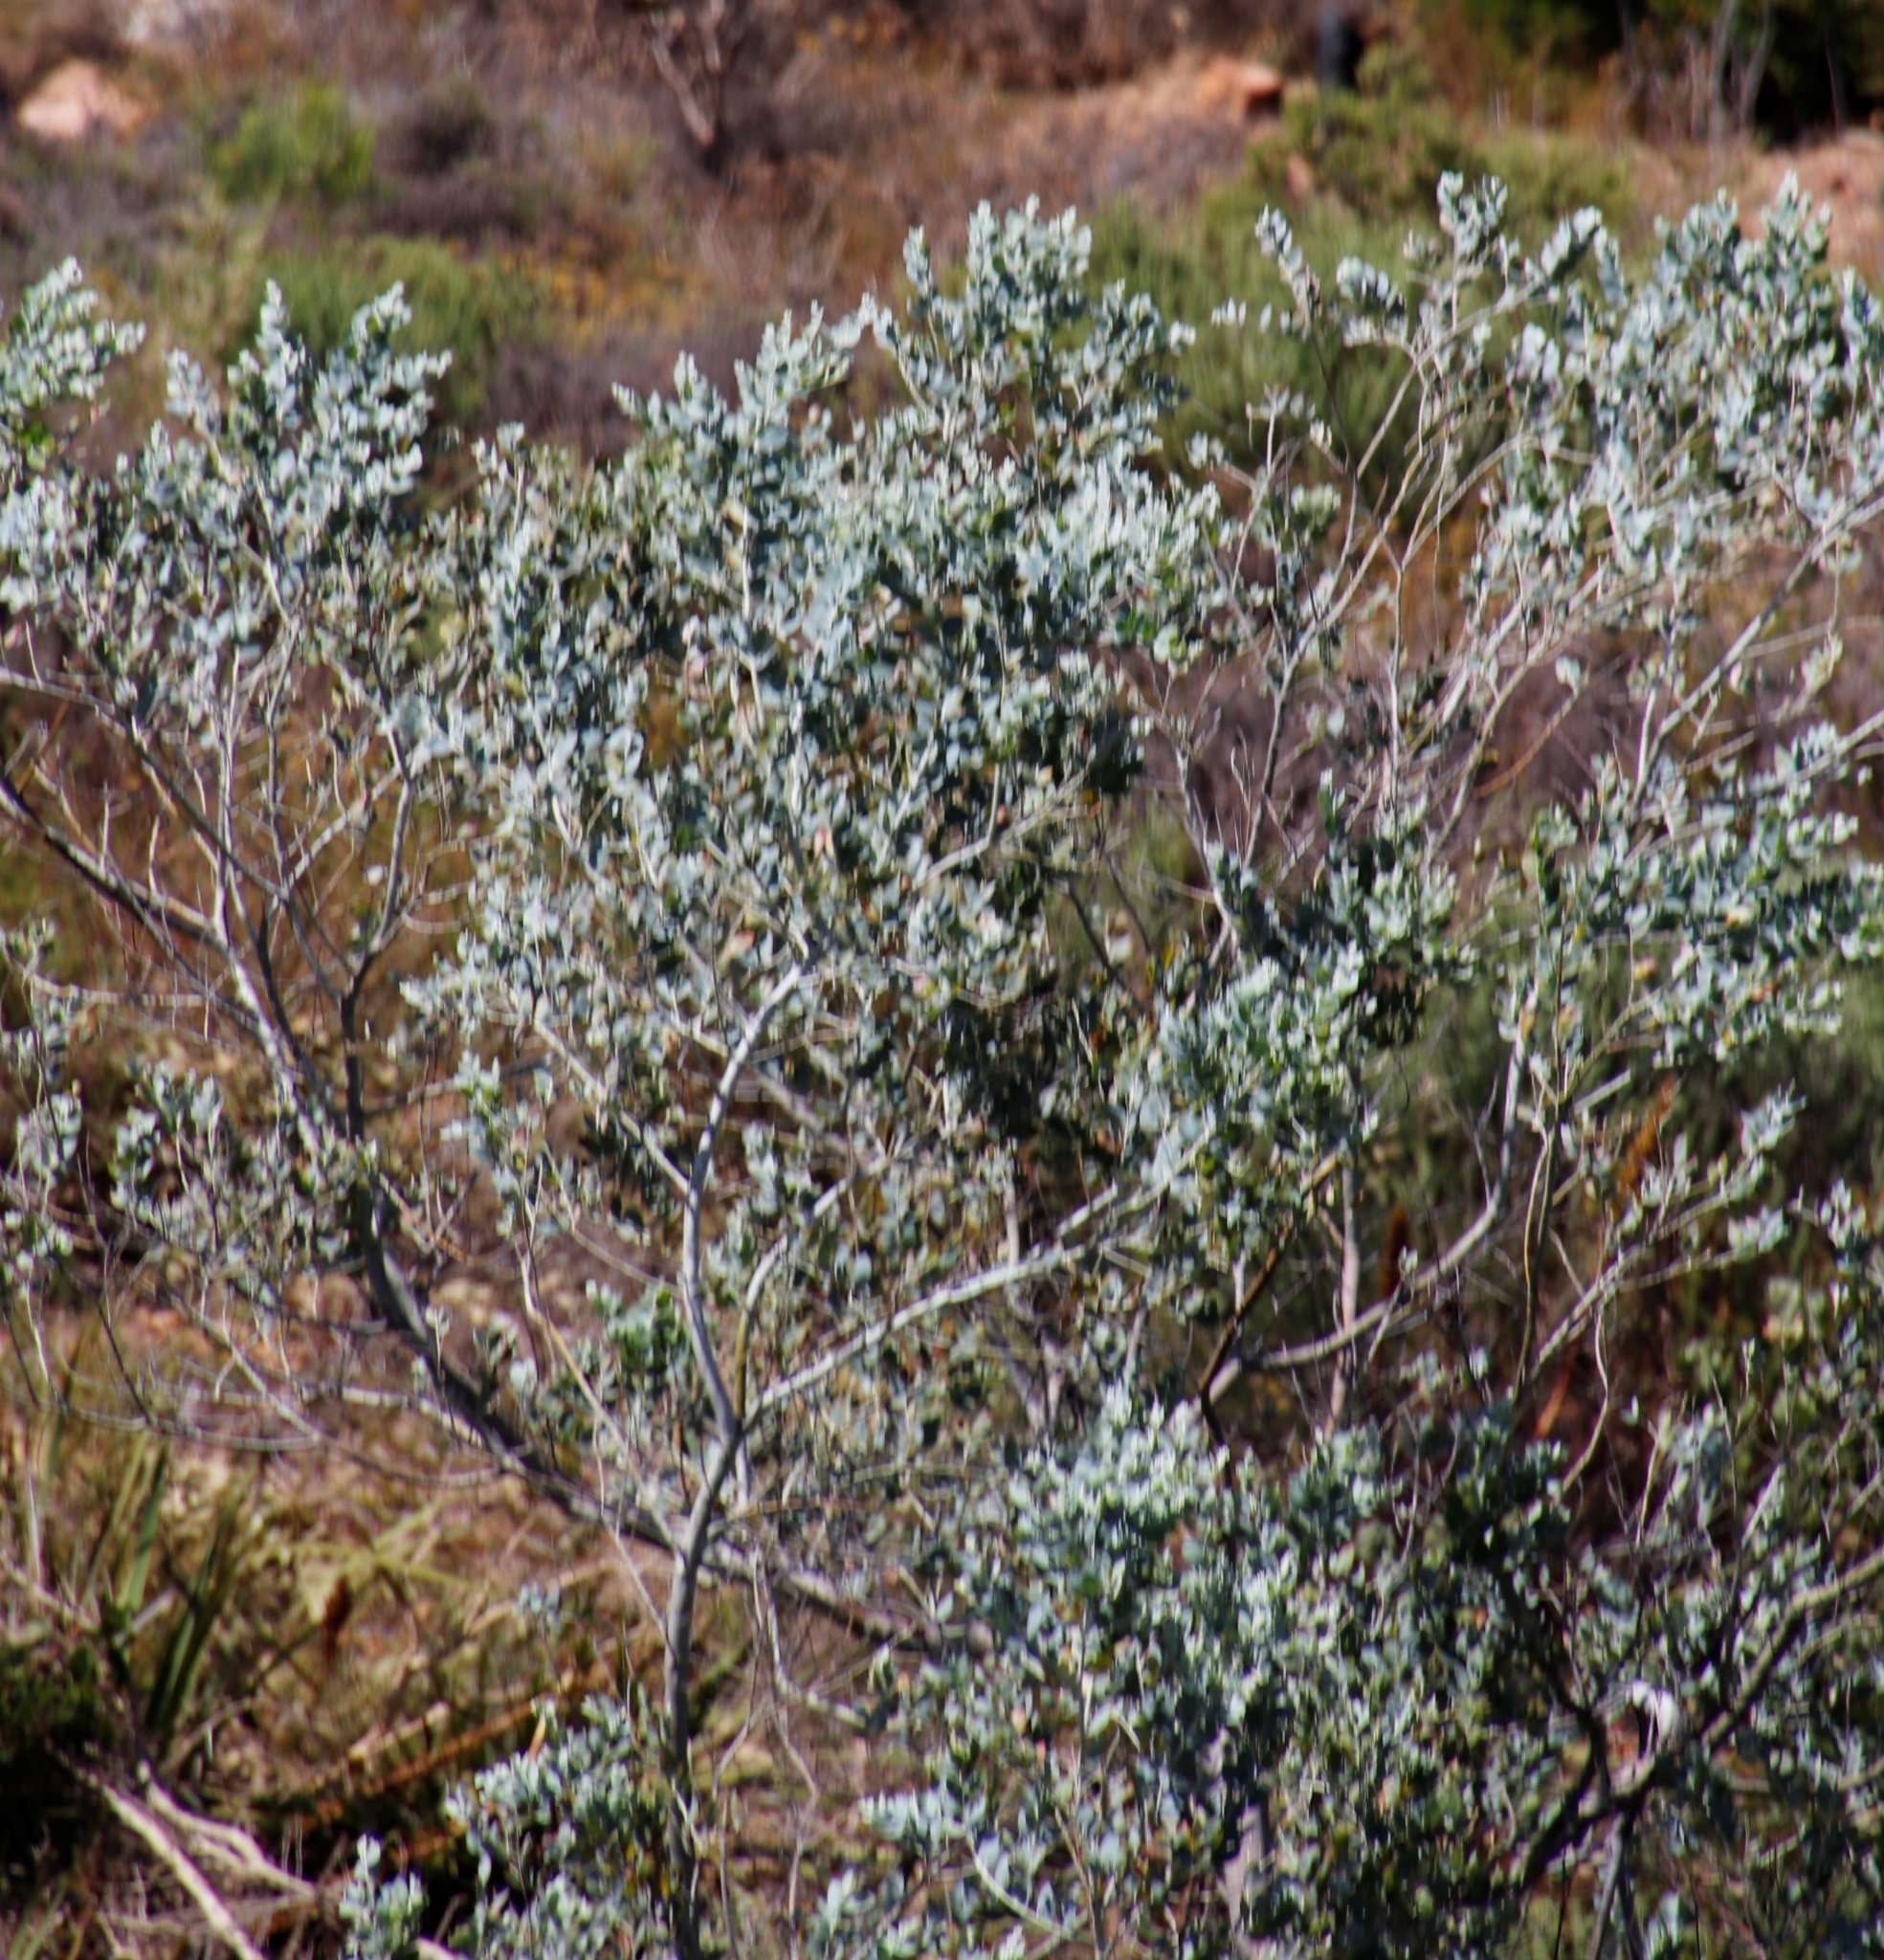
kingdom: Plantae
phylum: Tracheophyta
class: Magnoliopsida
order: Fabales
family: Fabaceae
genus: Acacia
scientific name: Acacia podalyriifolia
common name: Pearl wattle
